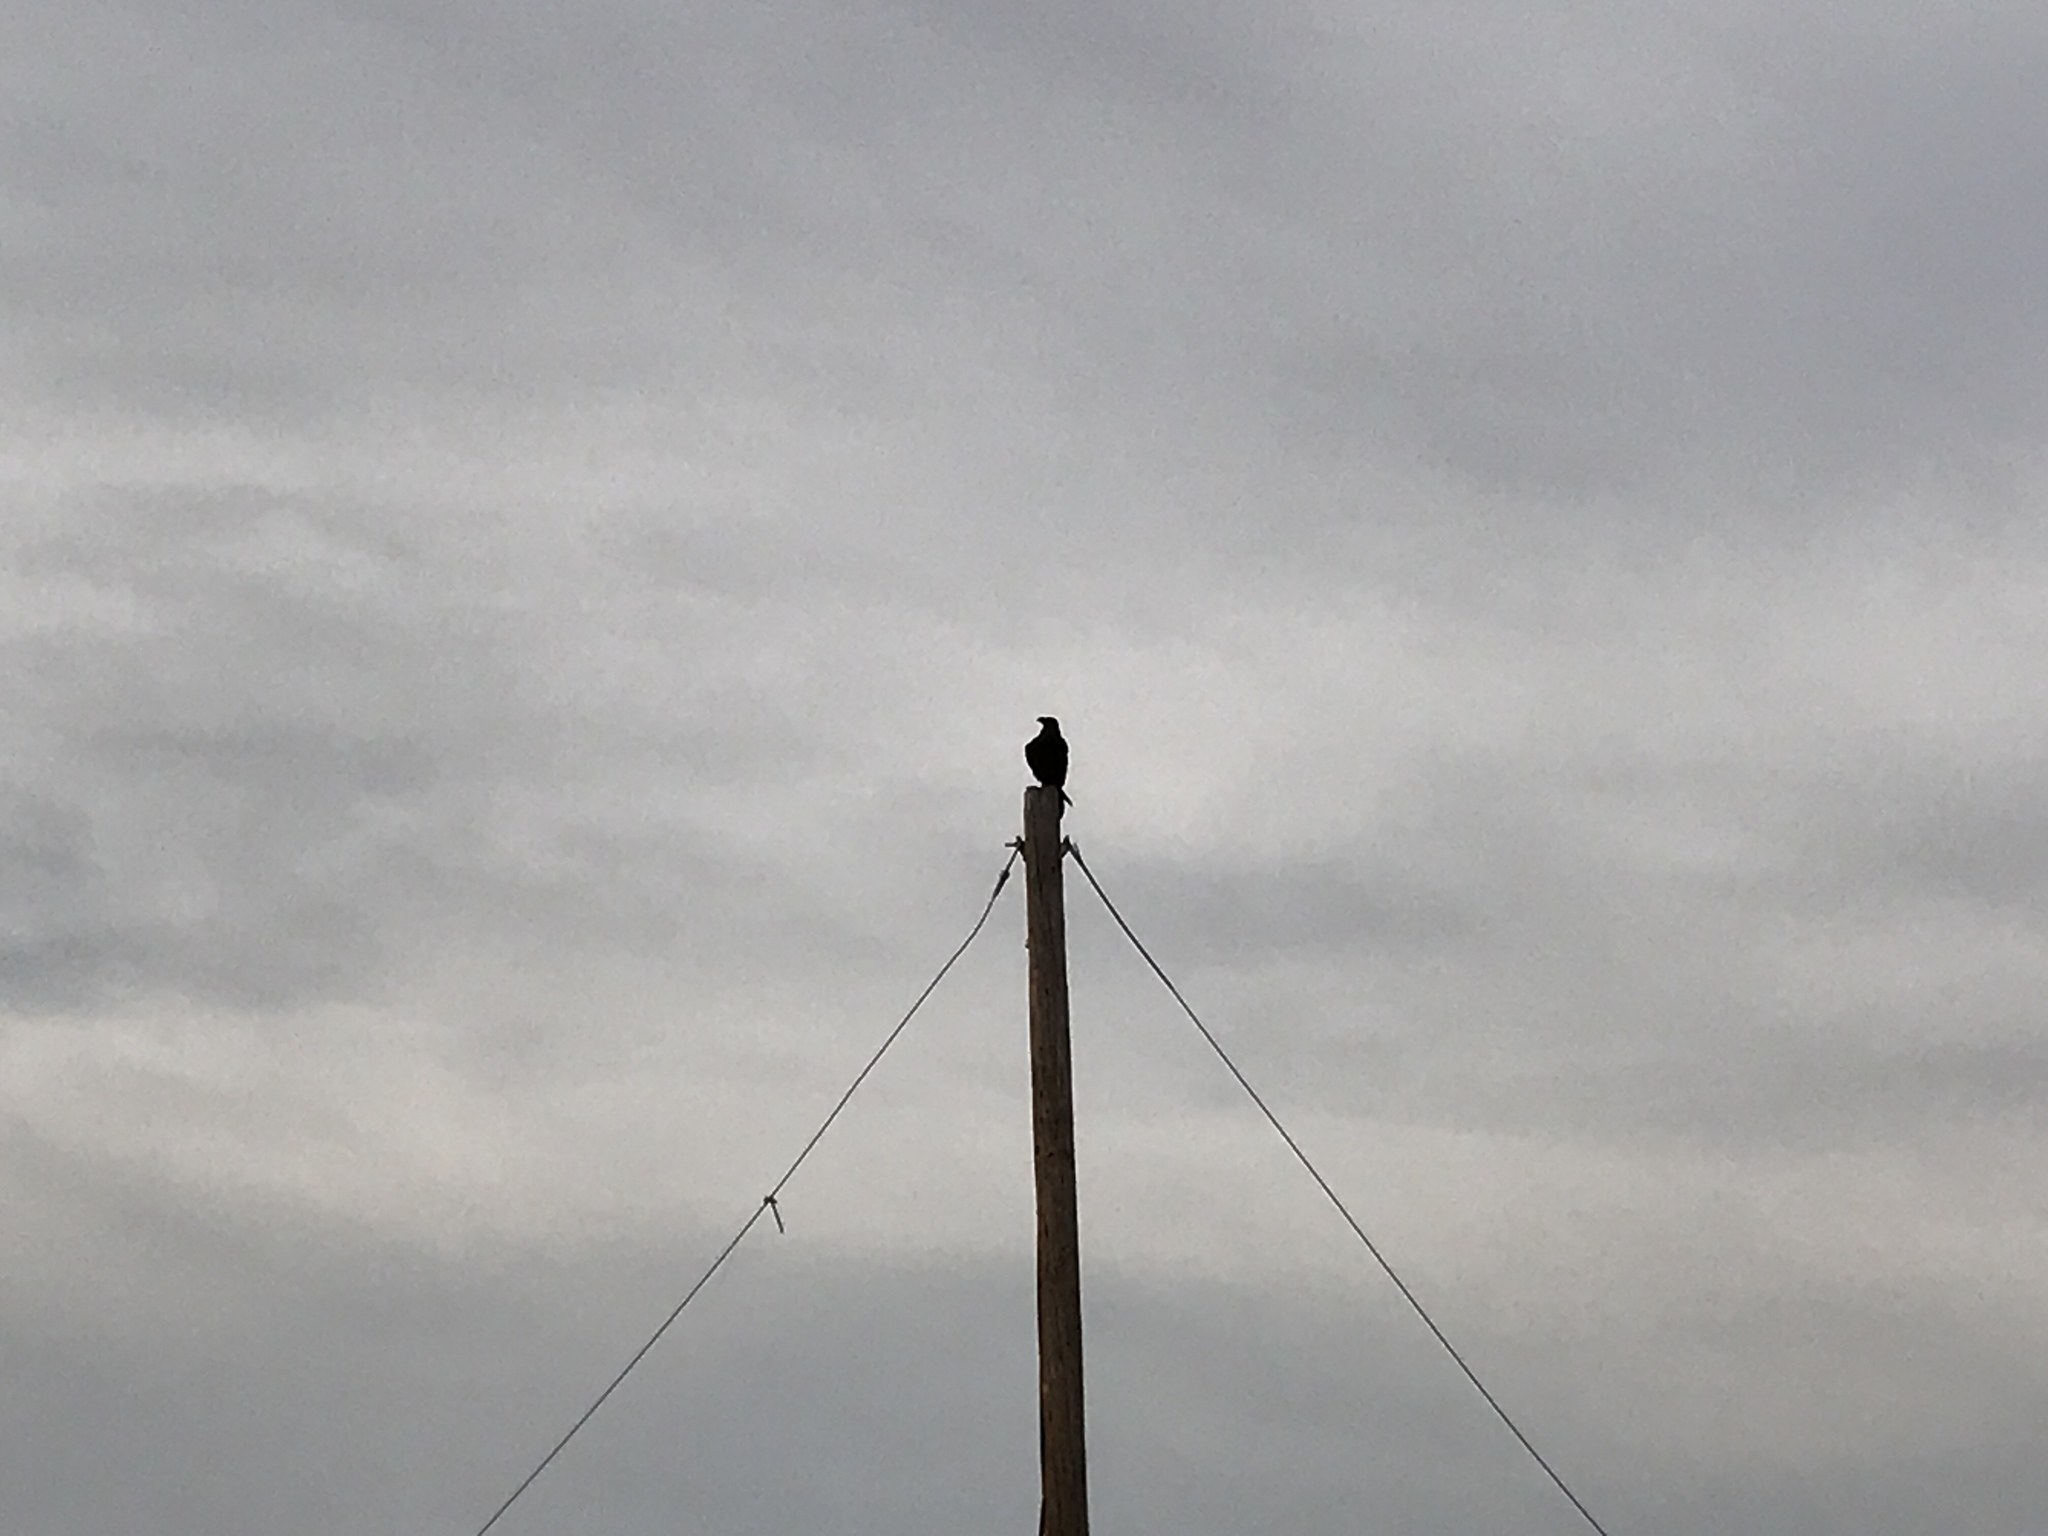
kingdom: Animalia
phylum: Chordata
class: Aves
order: Passeriformes
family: Corvidae
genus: Corvus
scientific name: Corvus corax
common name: Common raven
